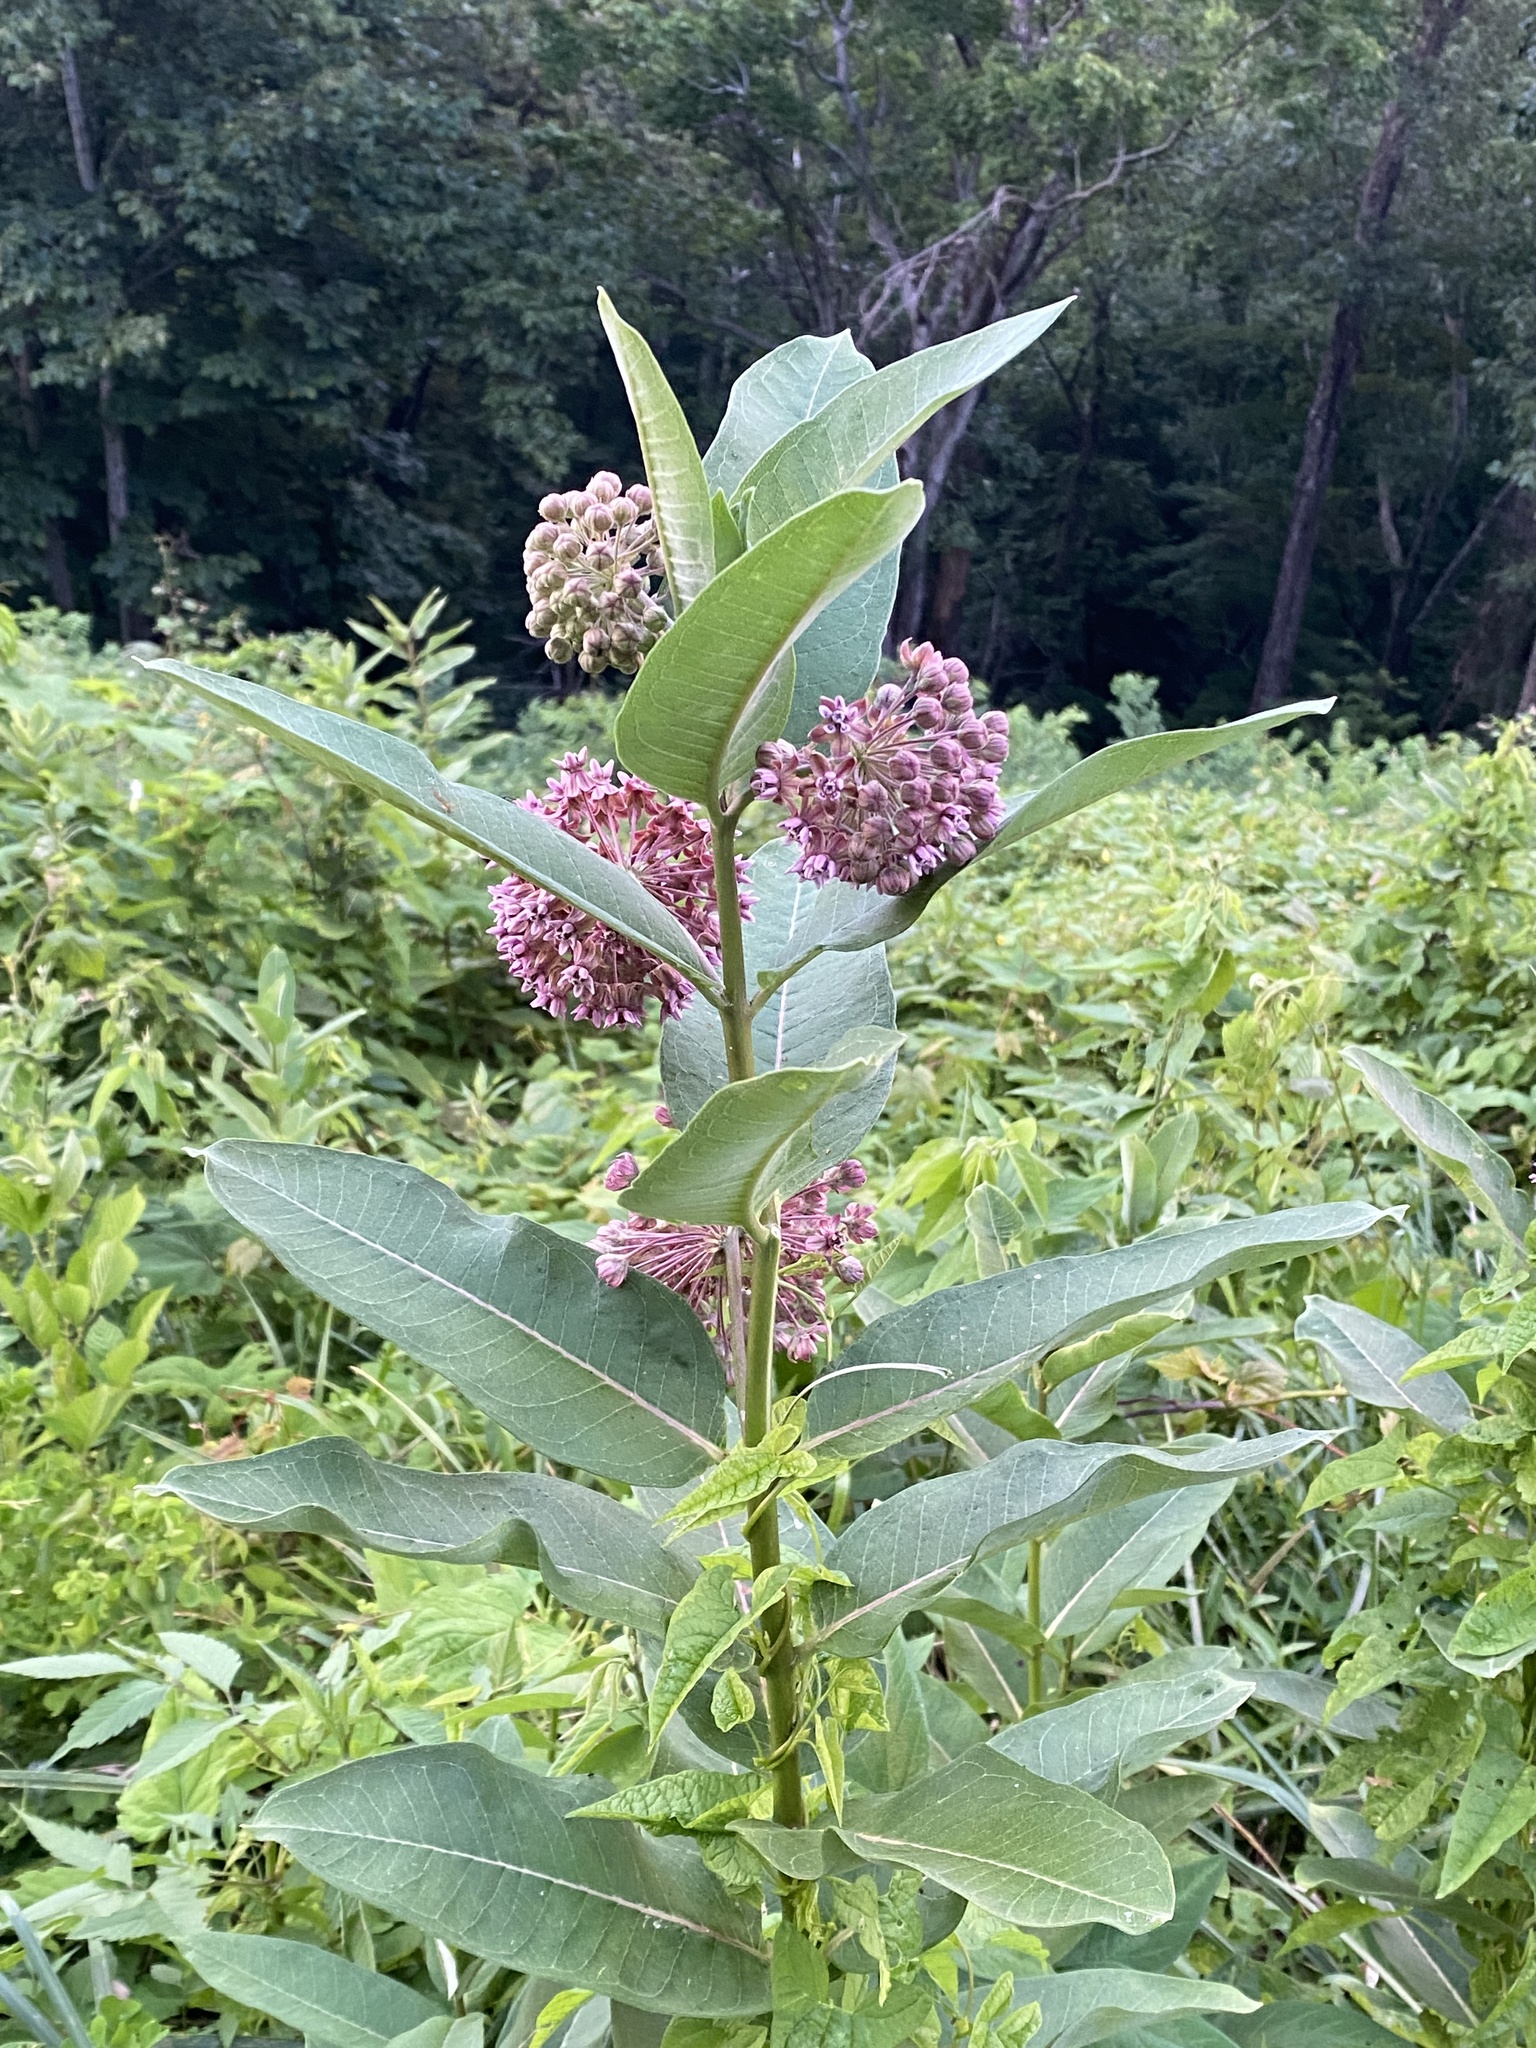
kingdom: Plantae
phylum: Tracheophyta
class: Magnoliopsida
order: Gentianales
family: Apocynaceae
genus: Asclepias
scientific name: Asclepias syriaca
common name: Common milkweed
